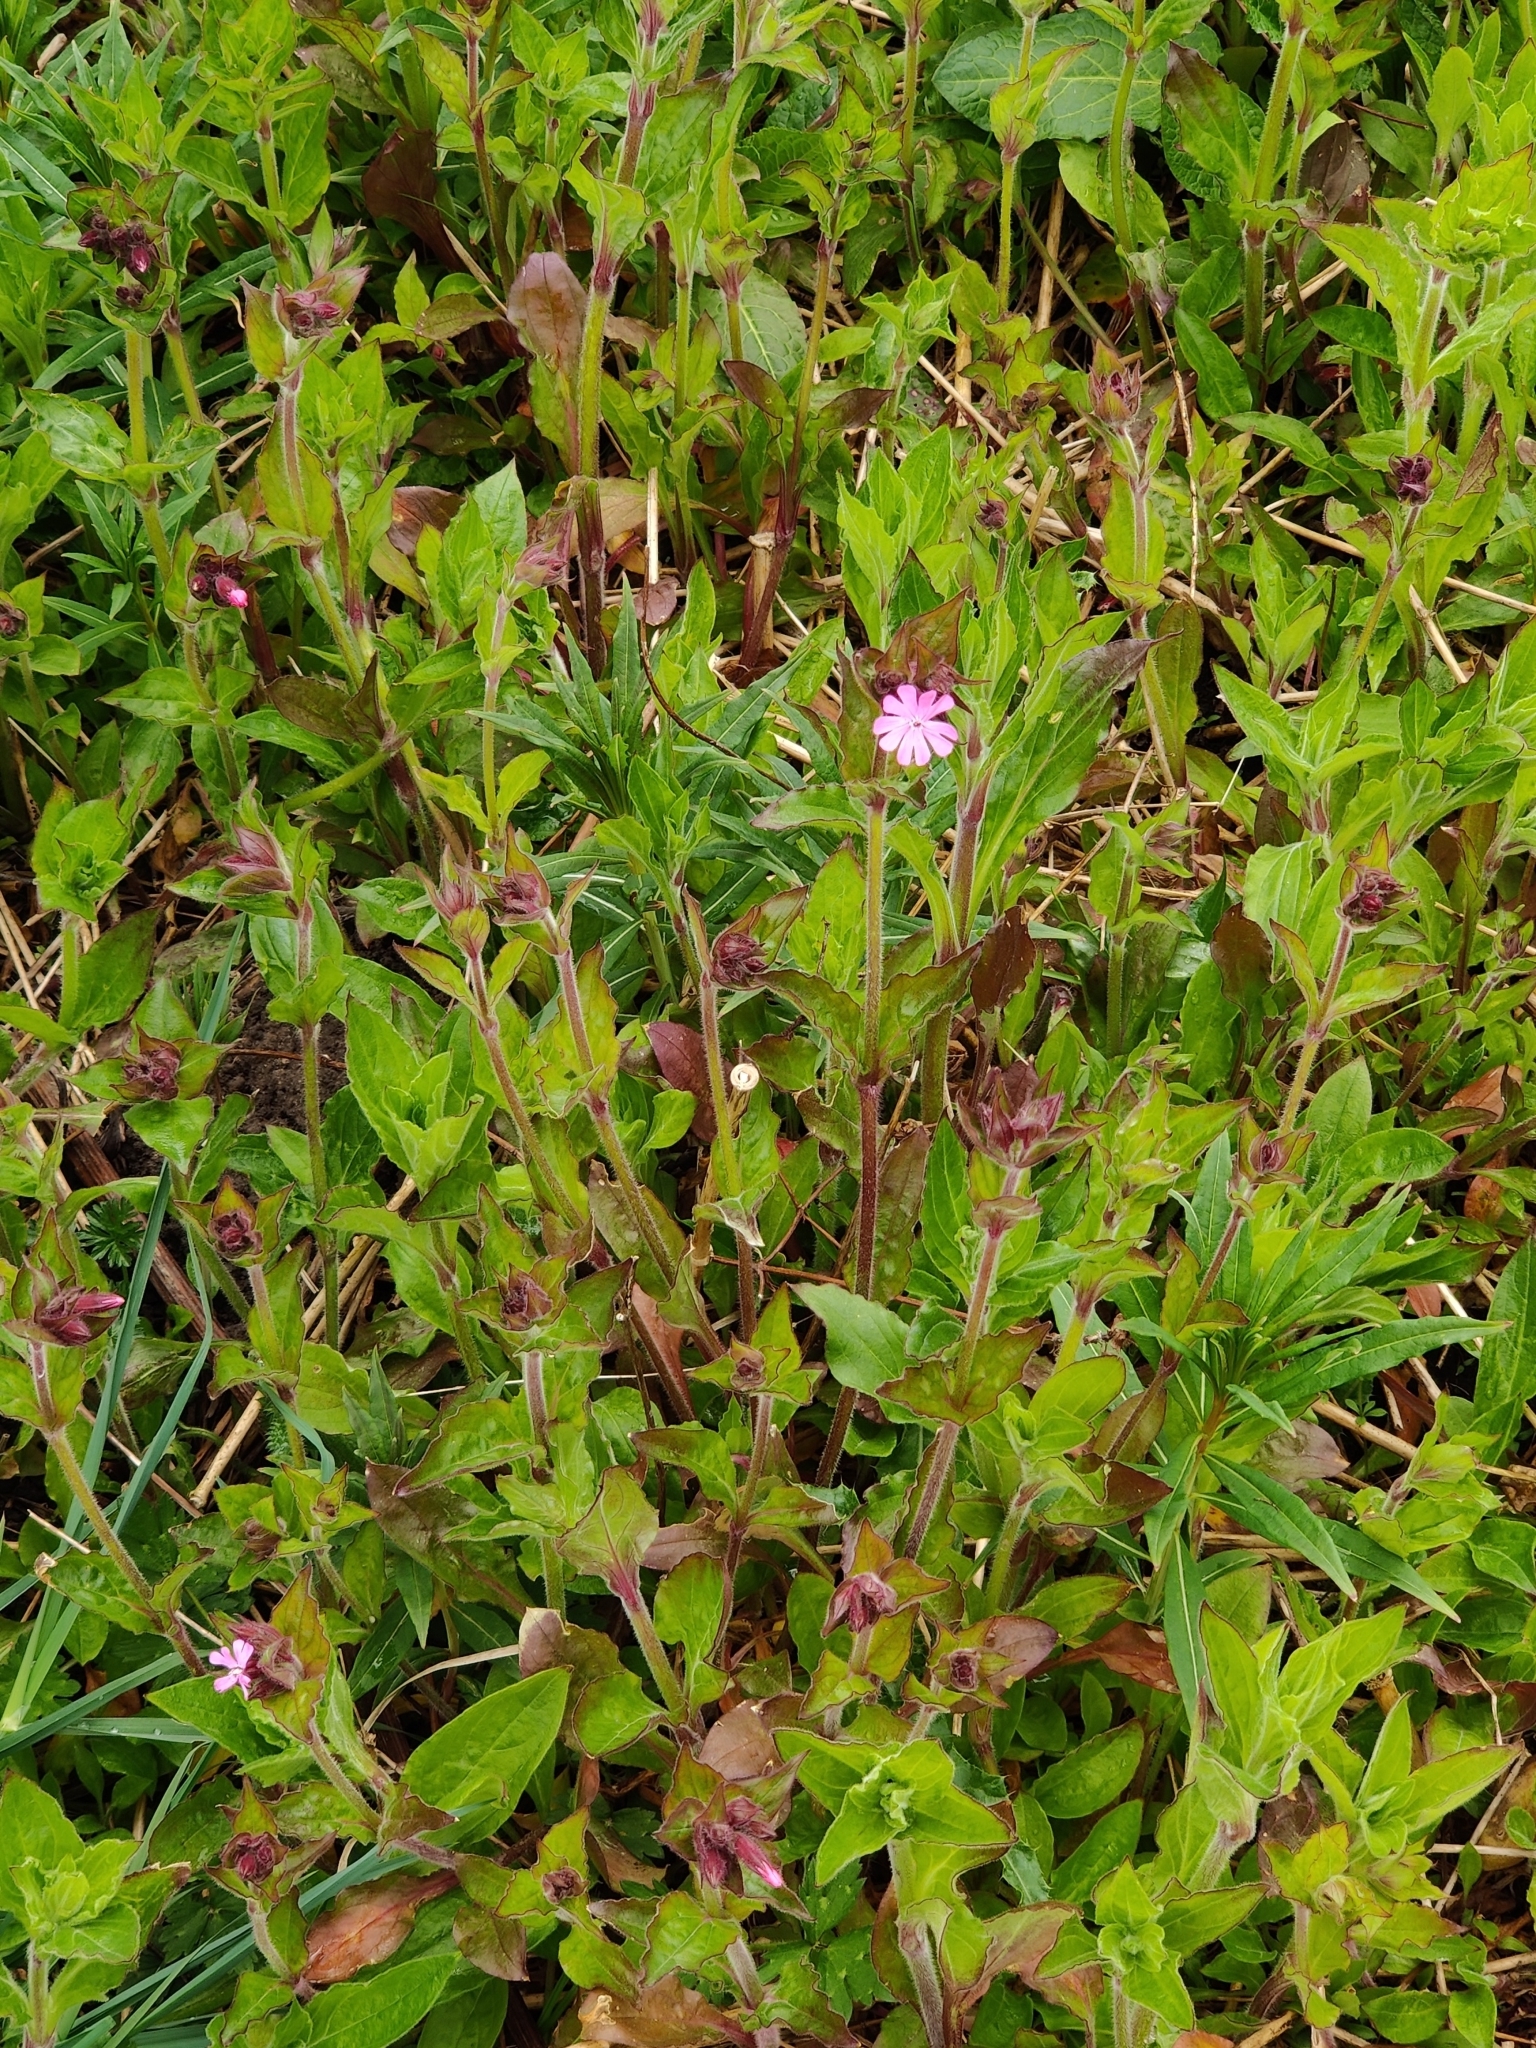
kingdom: Plantae
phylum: Tracheophyta
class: Magnoliopsida
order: Caryophyllales
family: Caryophyllaceae
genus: Silene
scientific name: Silene dioica
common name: Red campion
